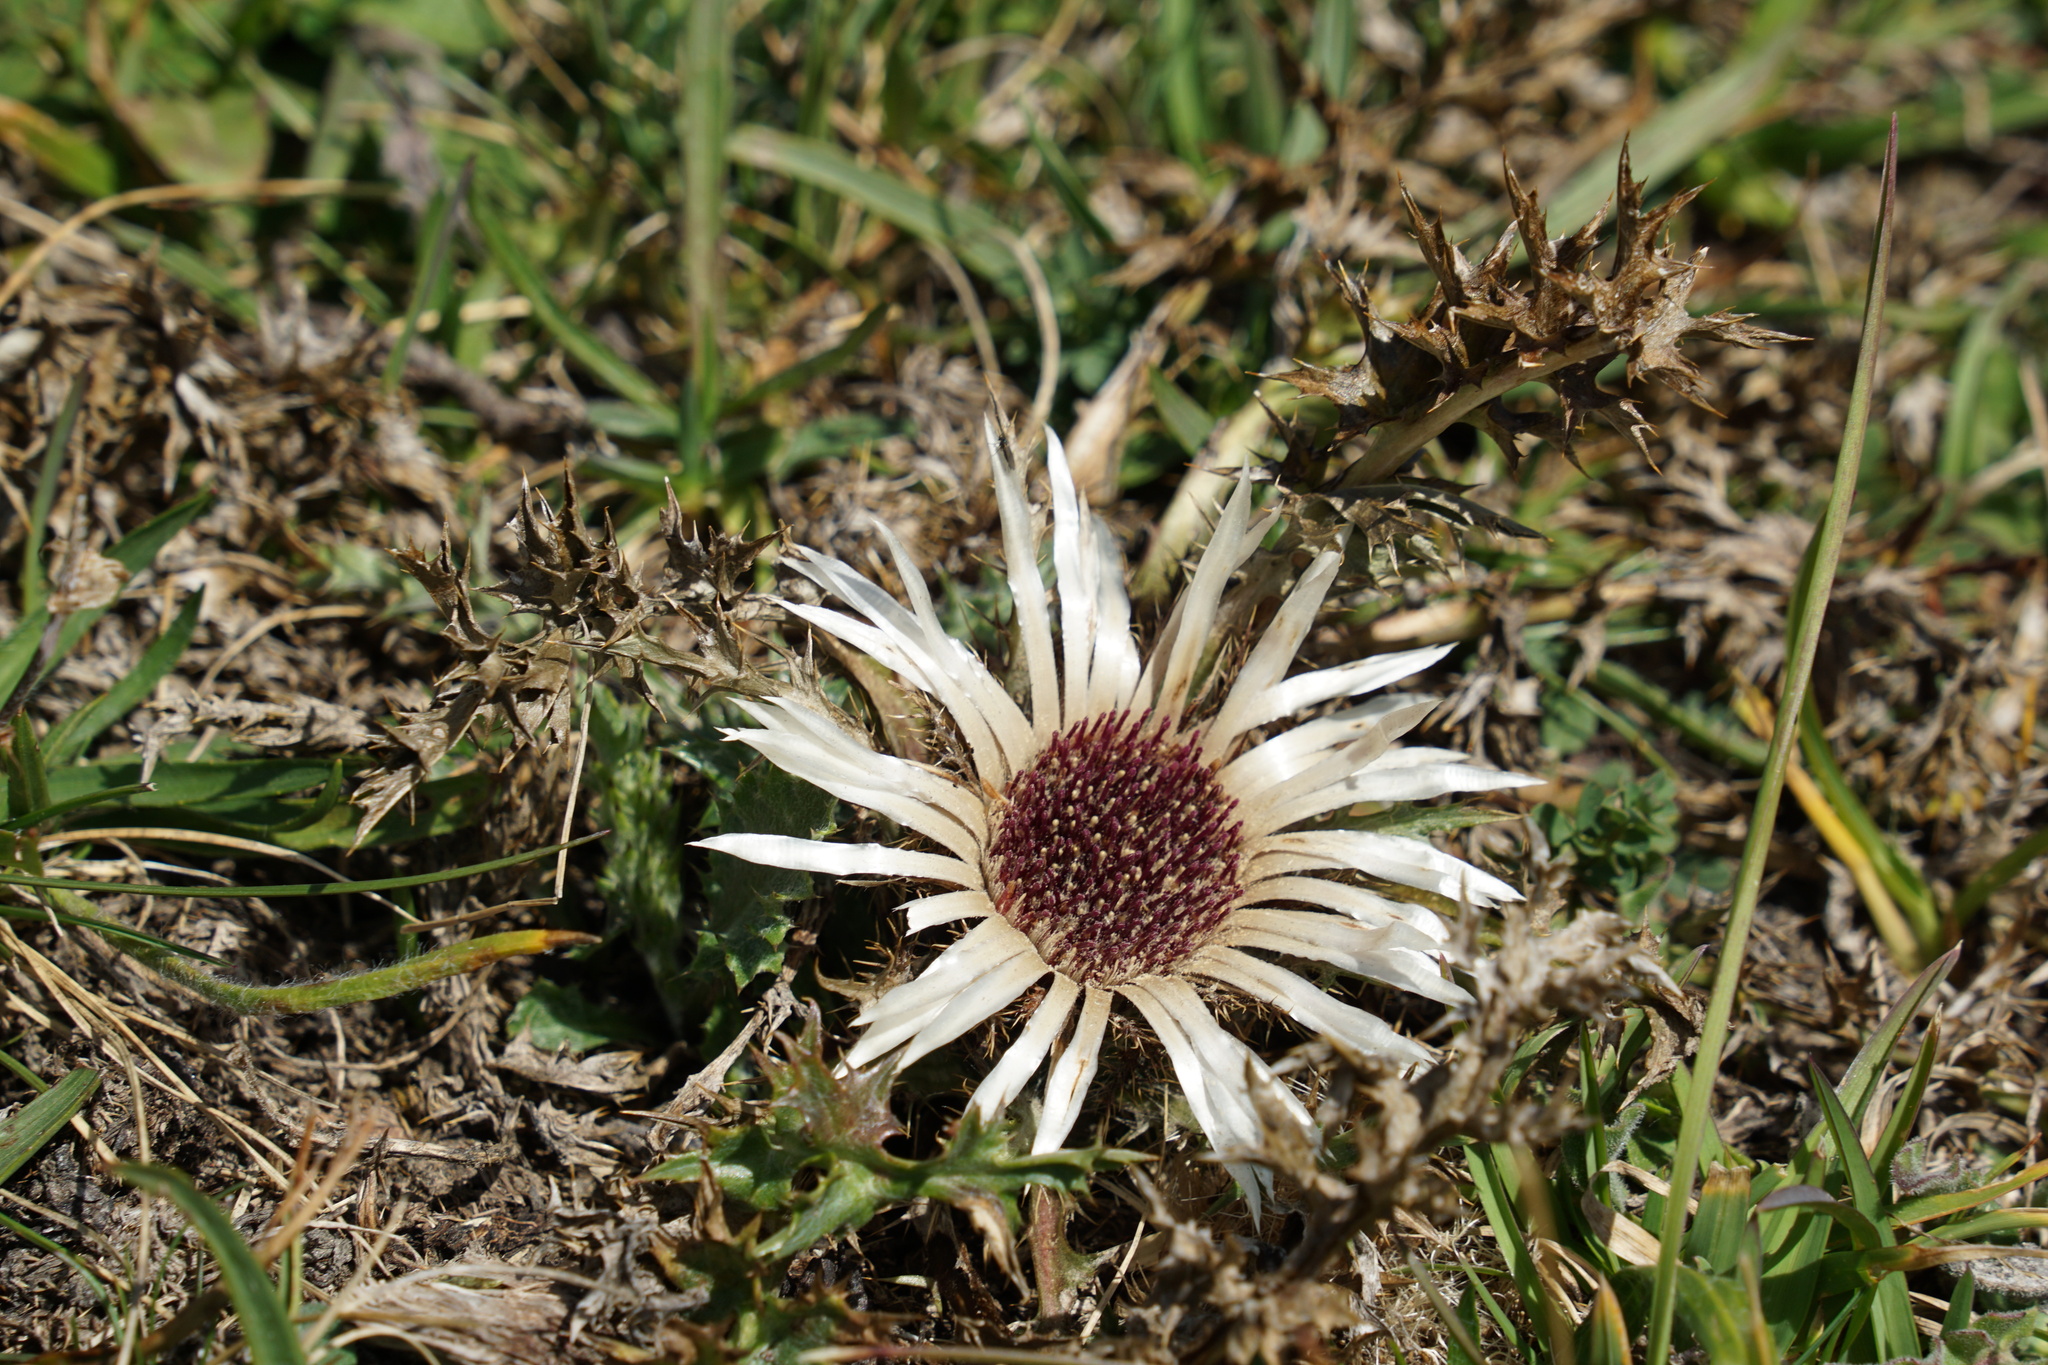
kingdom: Plantae
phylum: Tracheophyta
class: Magnoliopsida
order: Asterales
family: Asteraceae
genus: Carlina
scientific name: Carlina acaulis
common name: Stemless carline thistle
